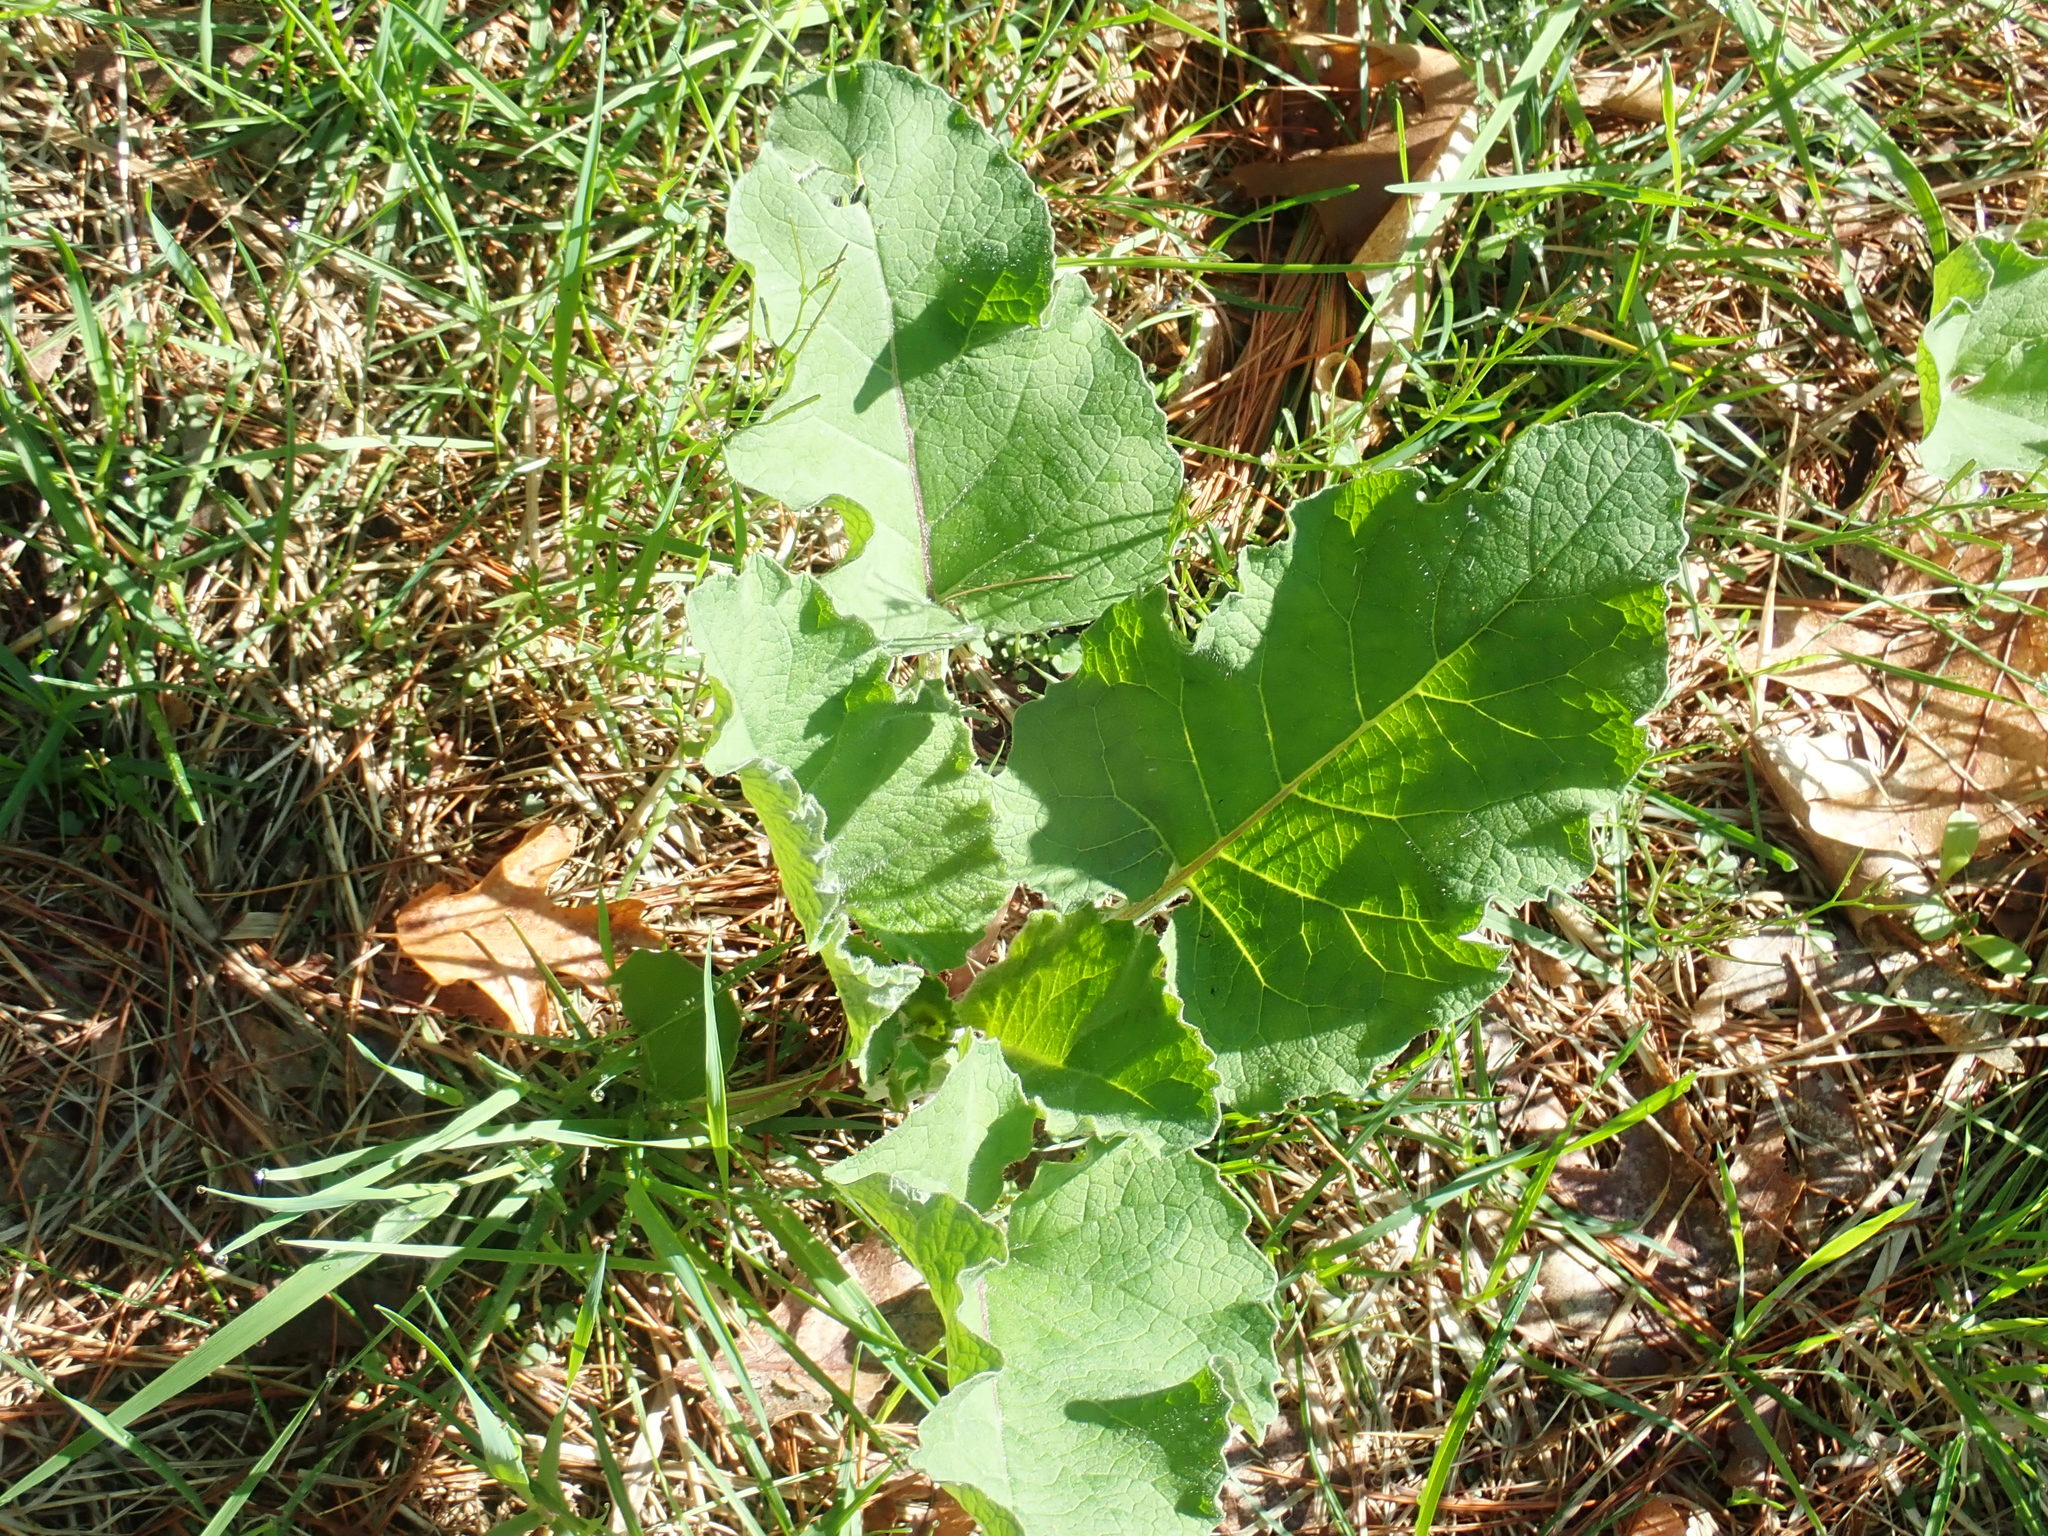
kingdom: Plantae
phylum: Tracheophyta
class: Magnoliopsida
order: Asterales
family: Asteraceae
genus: Arctium
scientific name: Arctium
